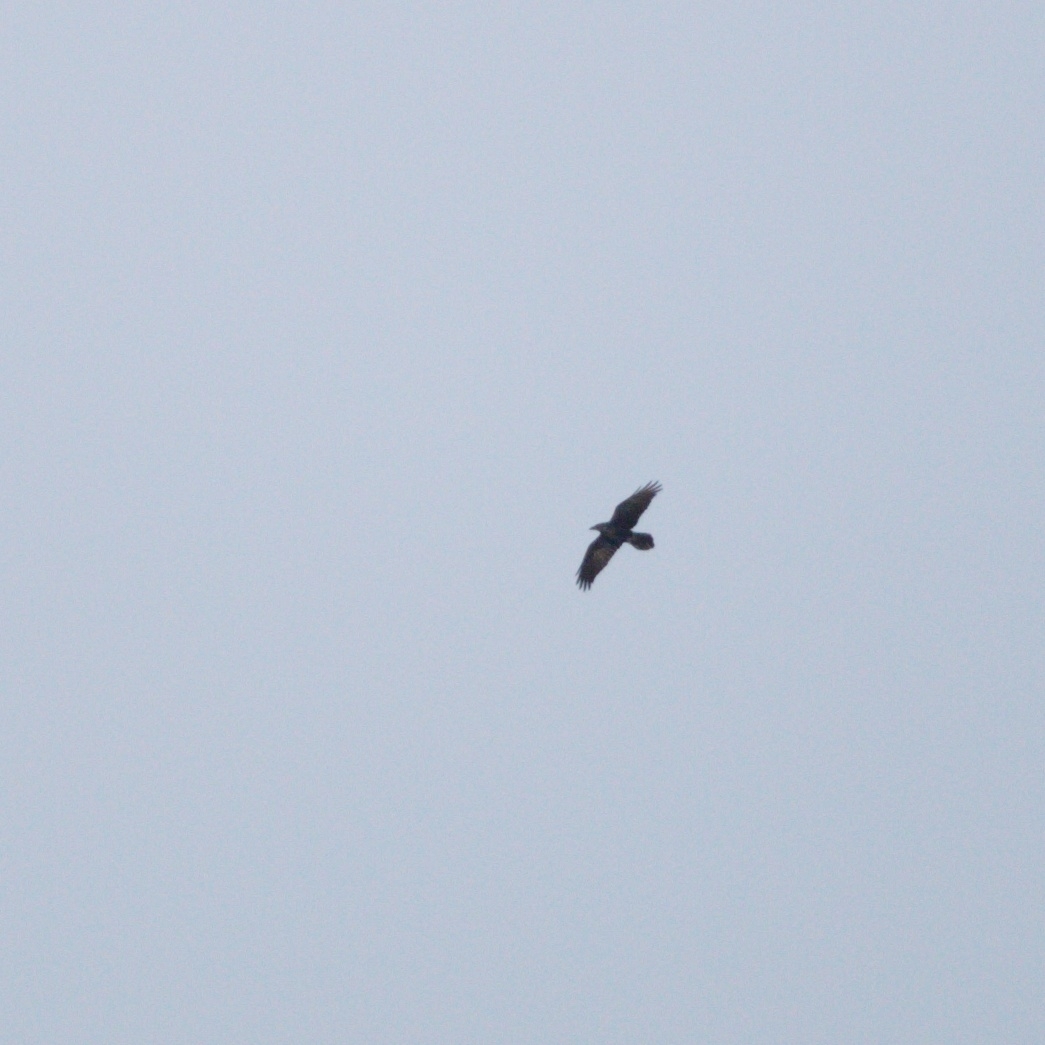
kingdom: Animalia
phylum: Chordata
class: Aves
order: Passeriformes
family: Corvidae
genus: Corvus
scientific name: Corvus corax
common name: Common raven
